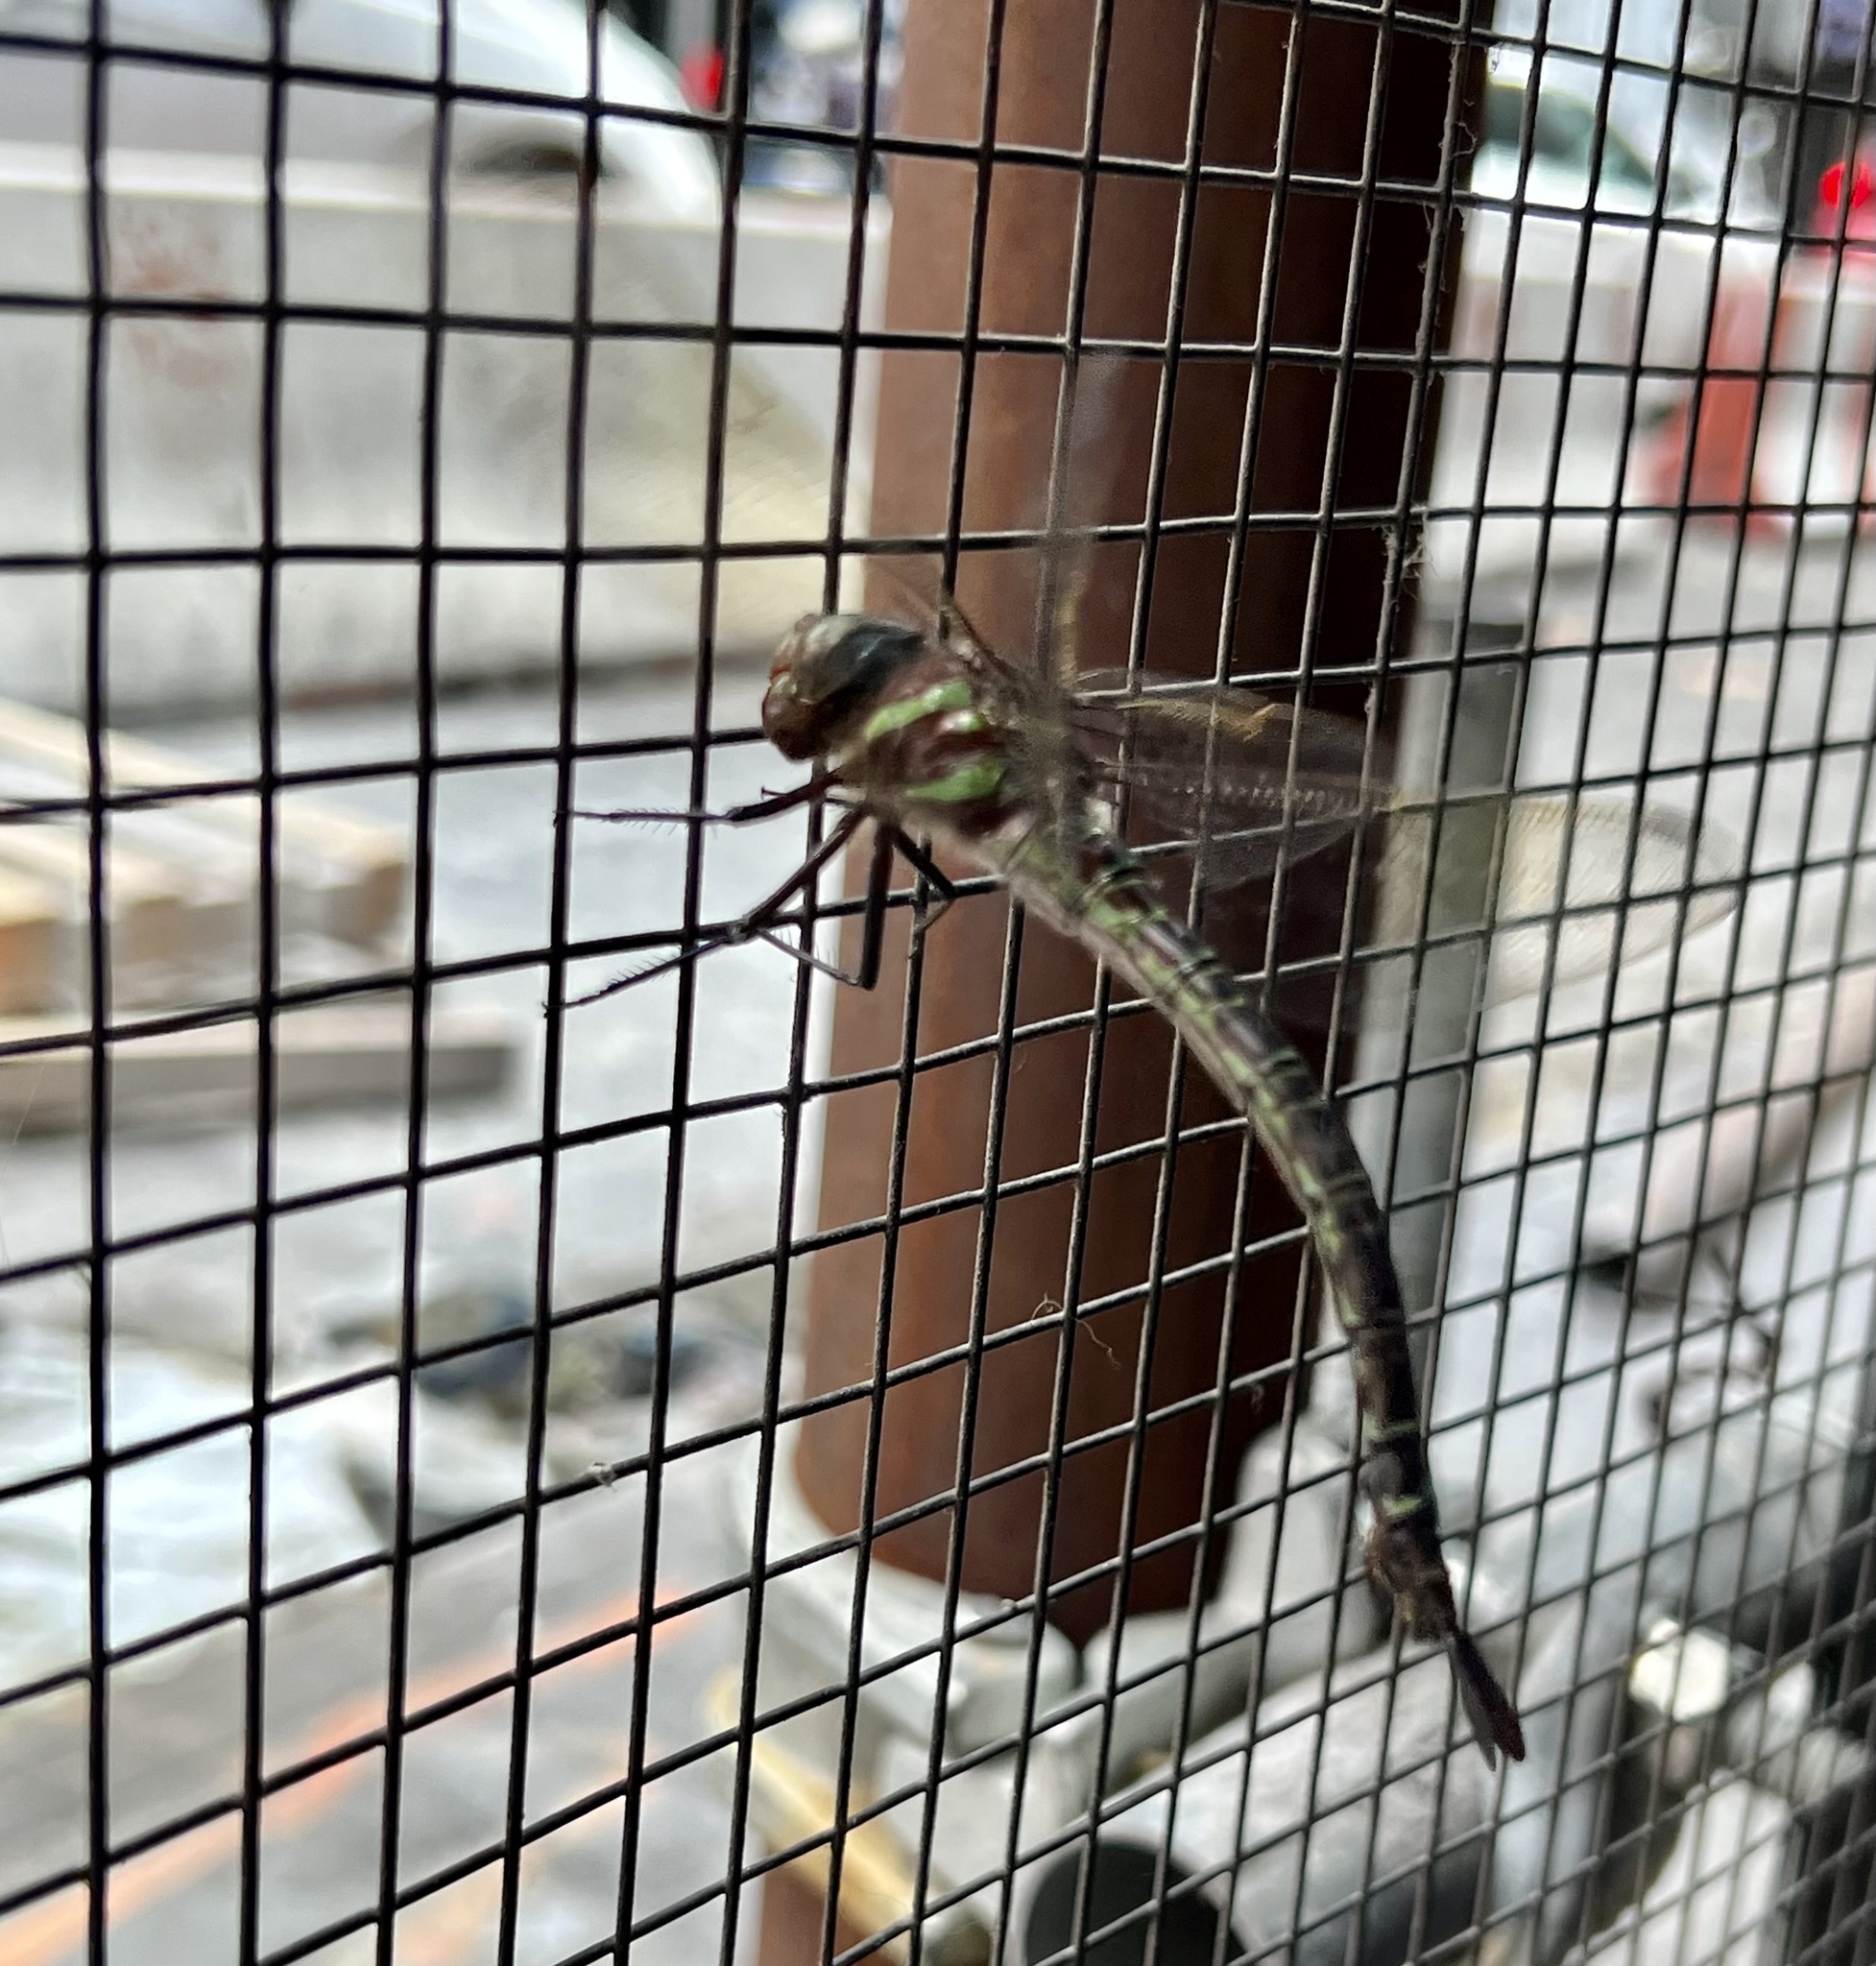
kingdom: Animalia
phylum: Arthropoda
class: Insecta
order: Odonata
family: Aeshnidae
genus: Epiaeschna
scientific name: Epiaeschna heros
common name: Swamp darner
